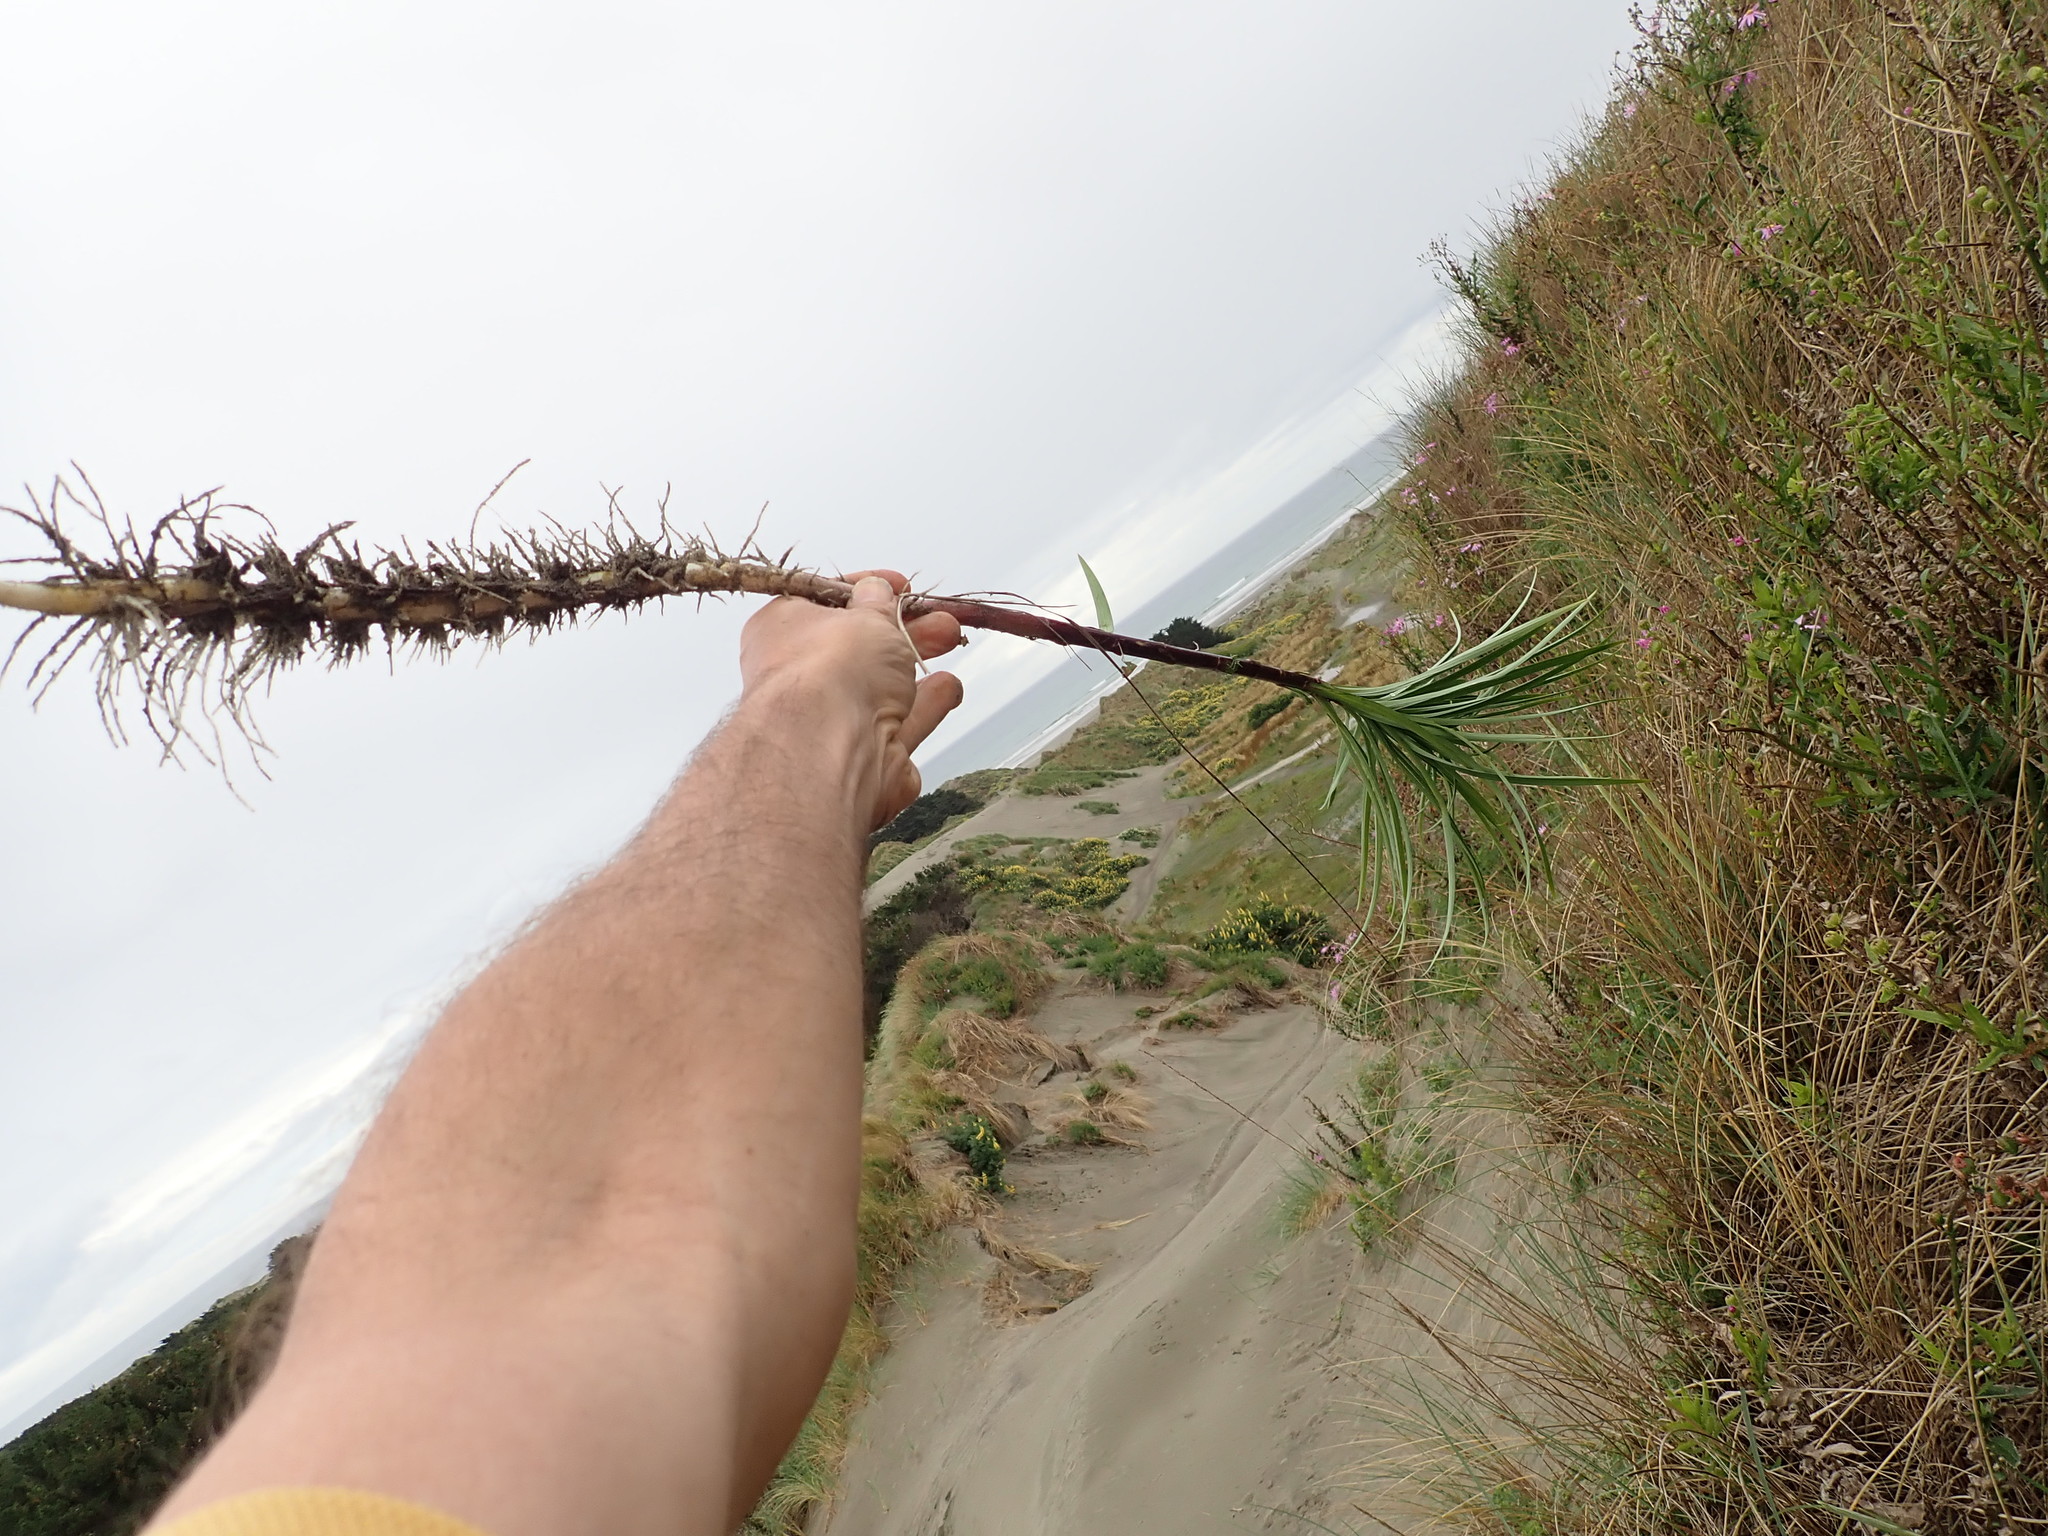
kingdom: Plantae
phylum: Tracheophyta
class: Liliopsida
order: Liliales
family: Liliaceae
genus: Lilium
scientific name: Lilium formosanum
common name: Formosa lily
